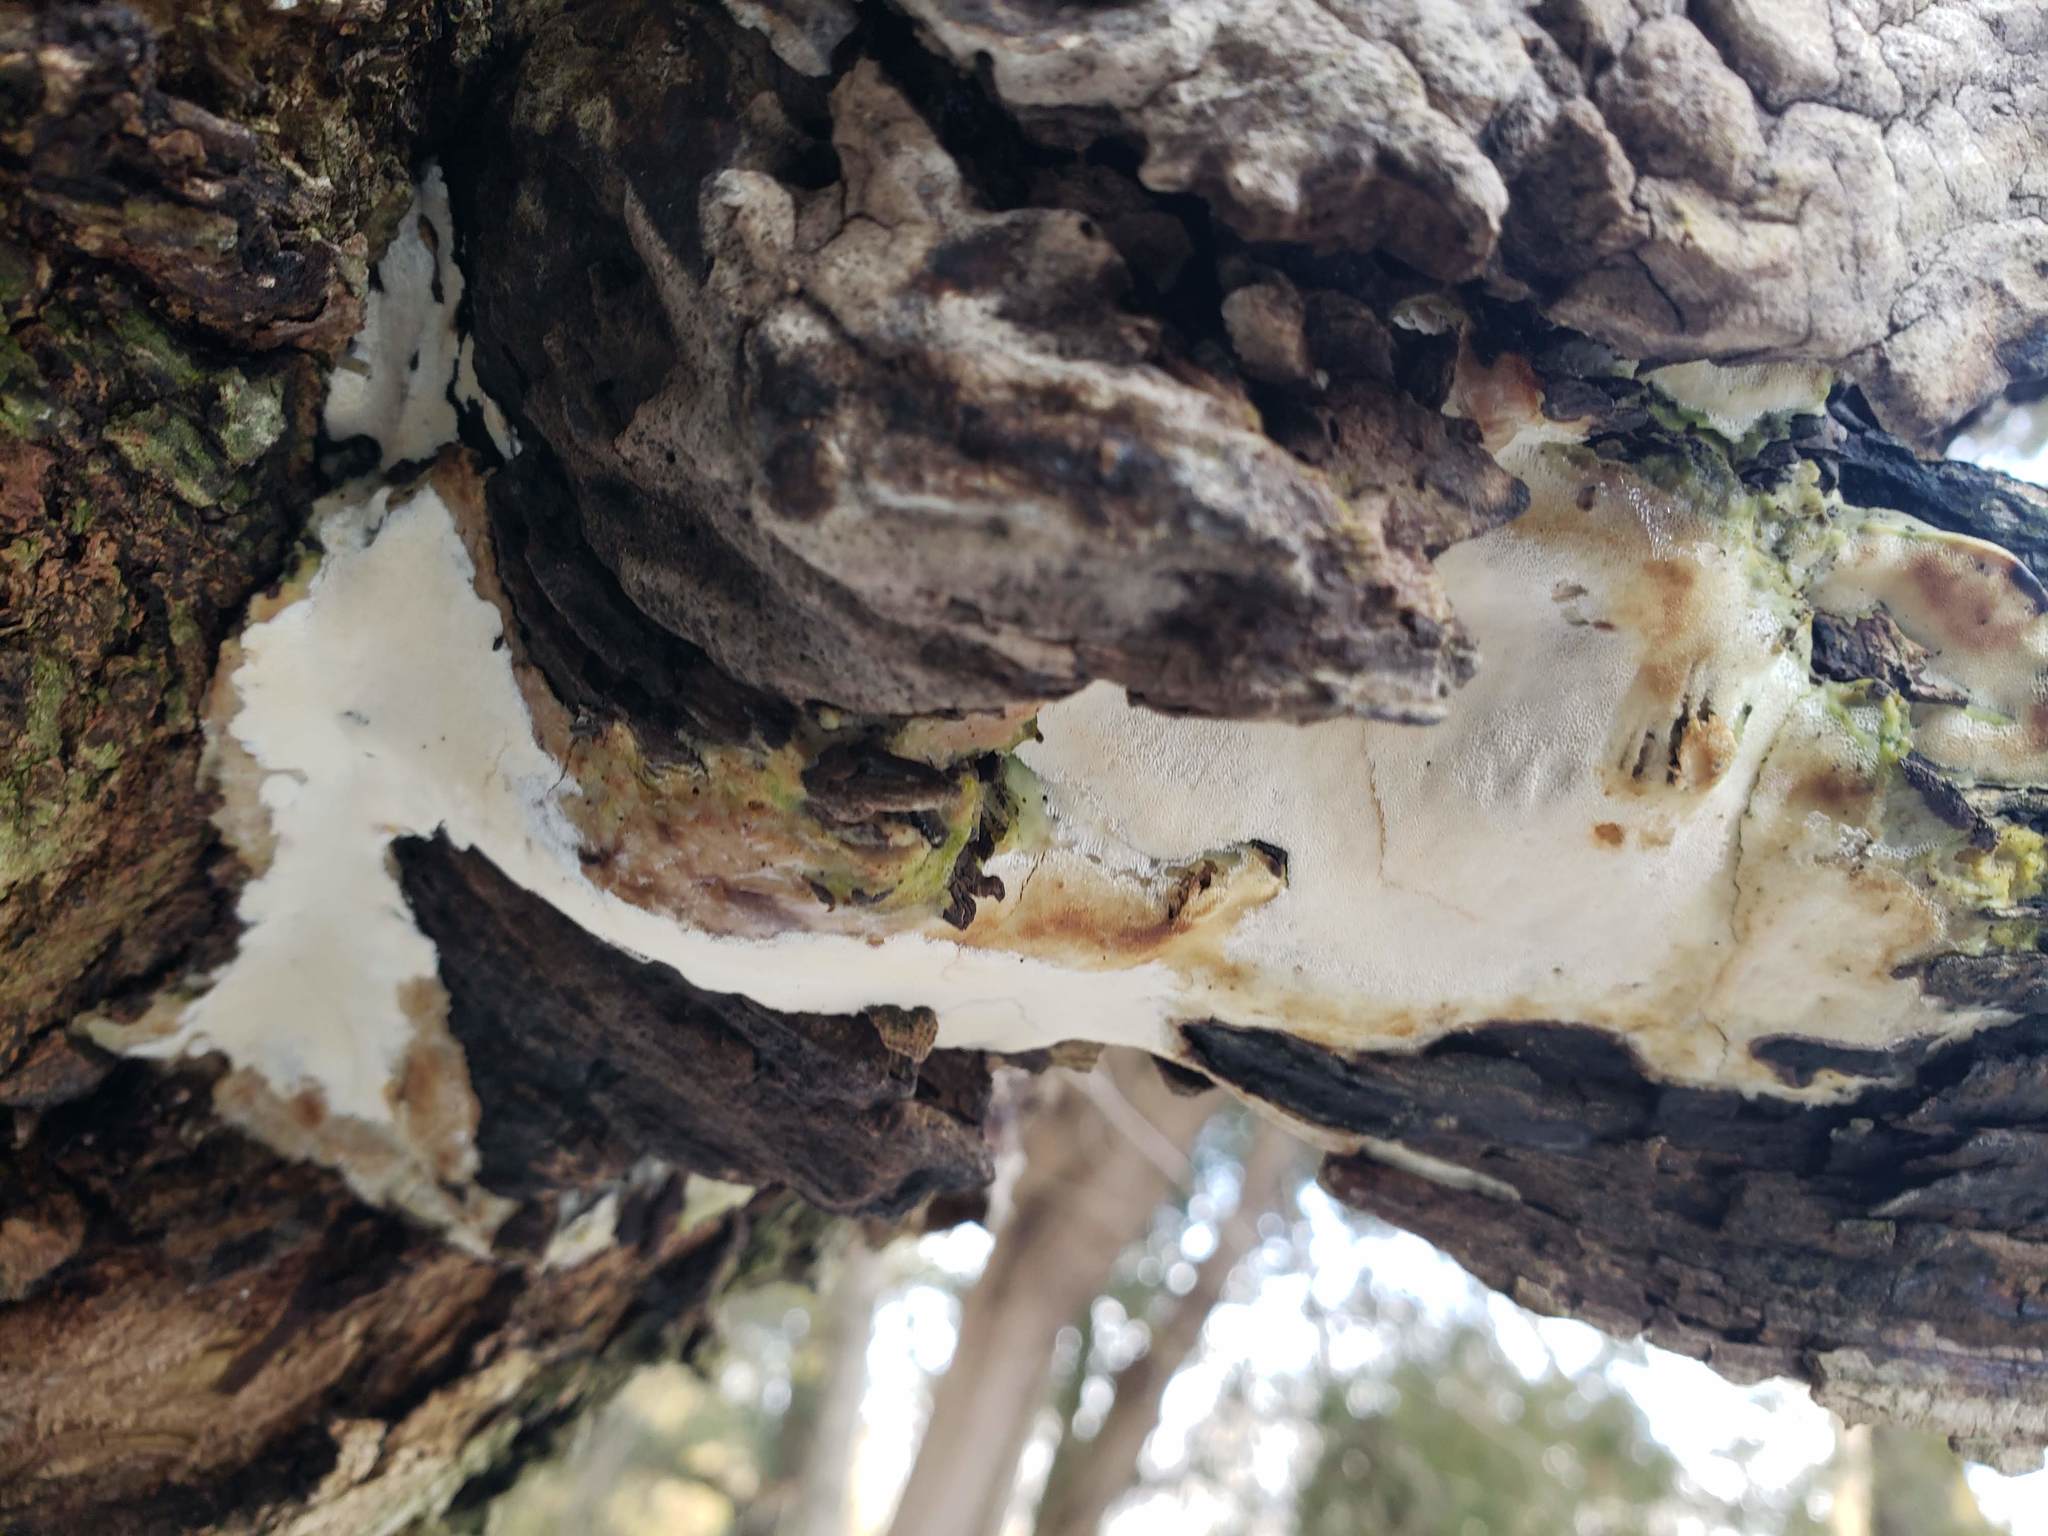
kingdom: Fungi
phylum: Basidiomycota
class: Agaricomycetes
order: Hymenochaetales
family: Oxyporaceae
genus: Oxyporus
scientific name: Oxyporus populinus
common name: Poplar bracket
